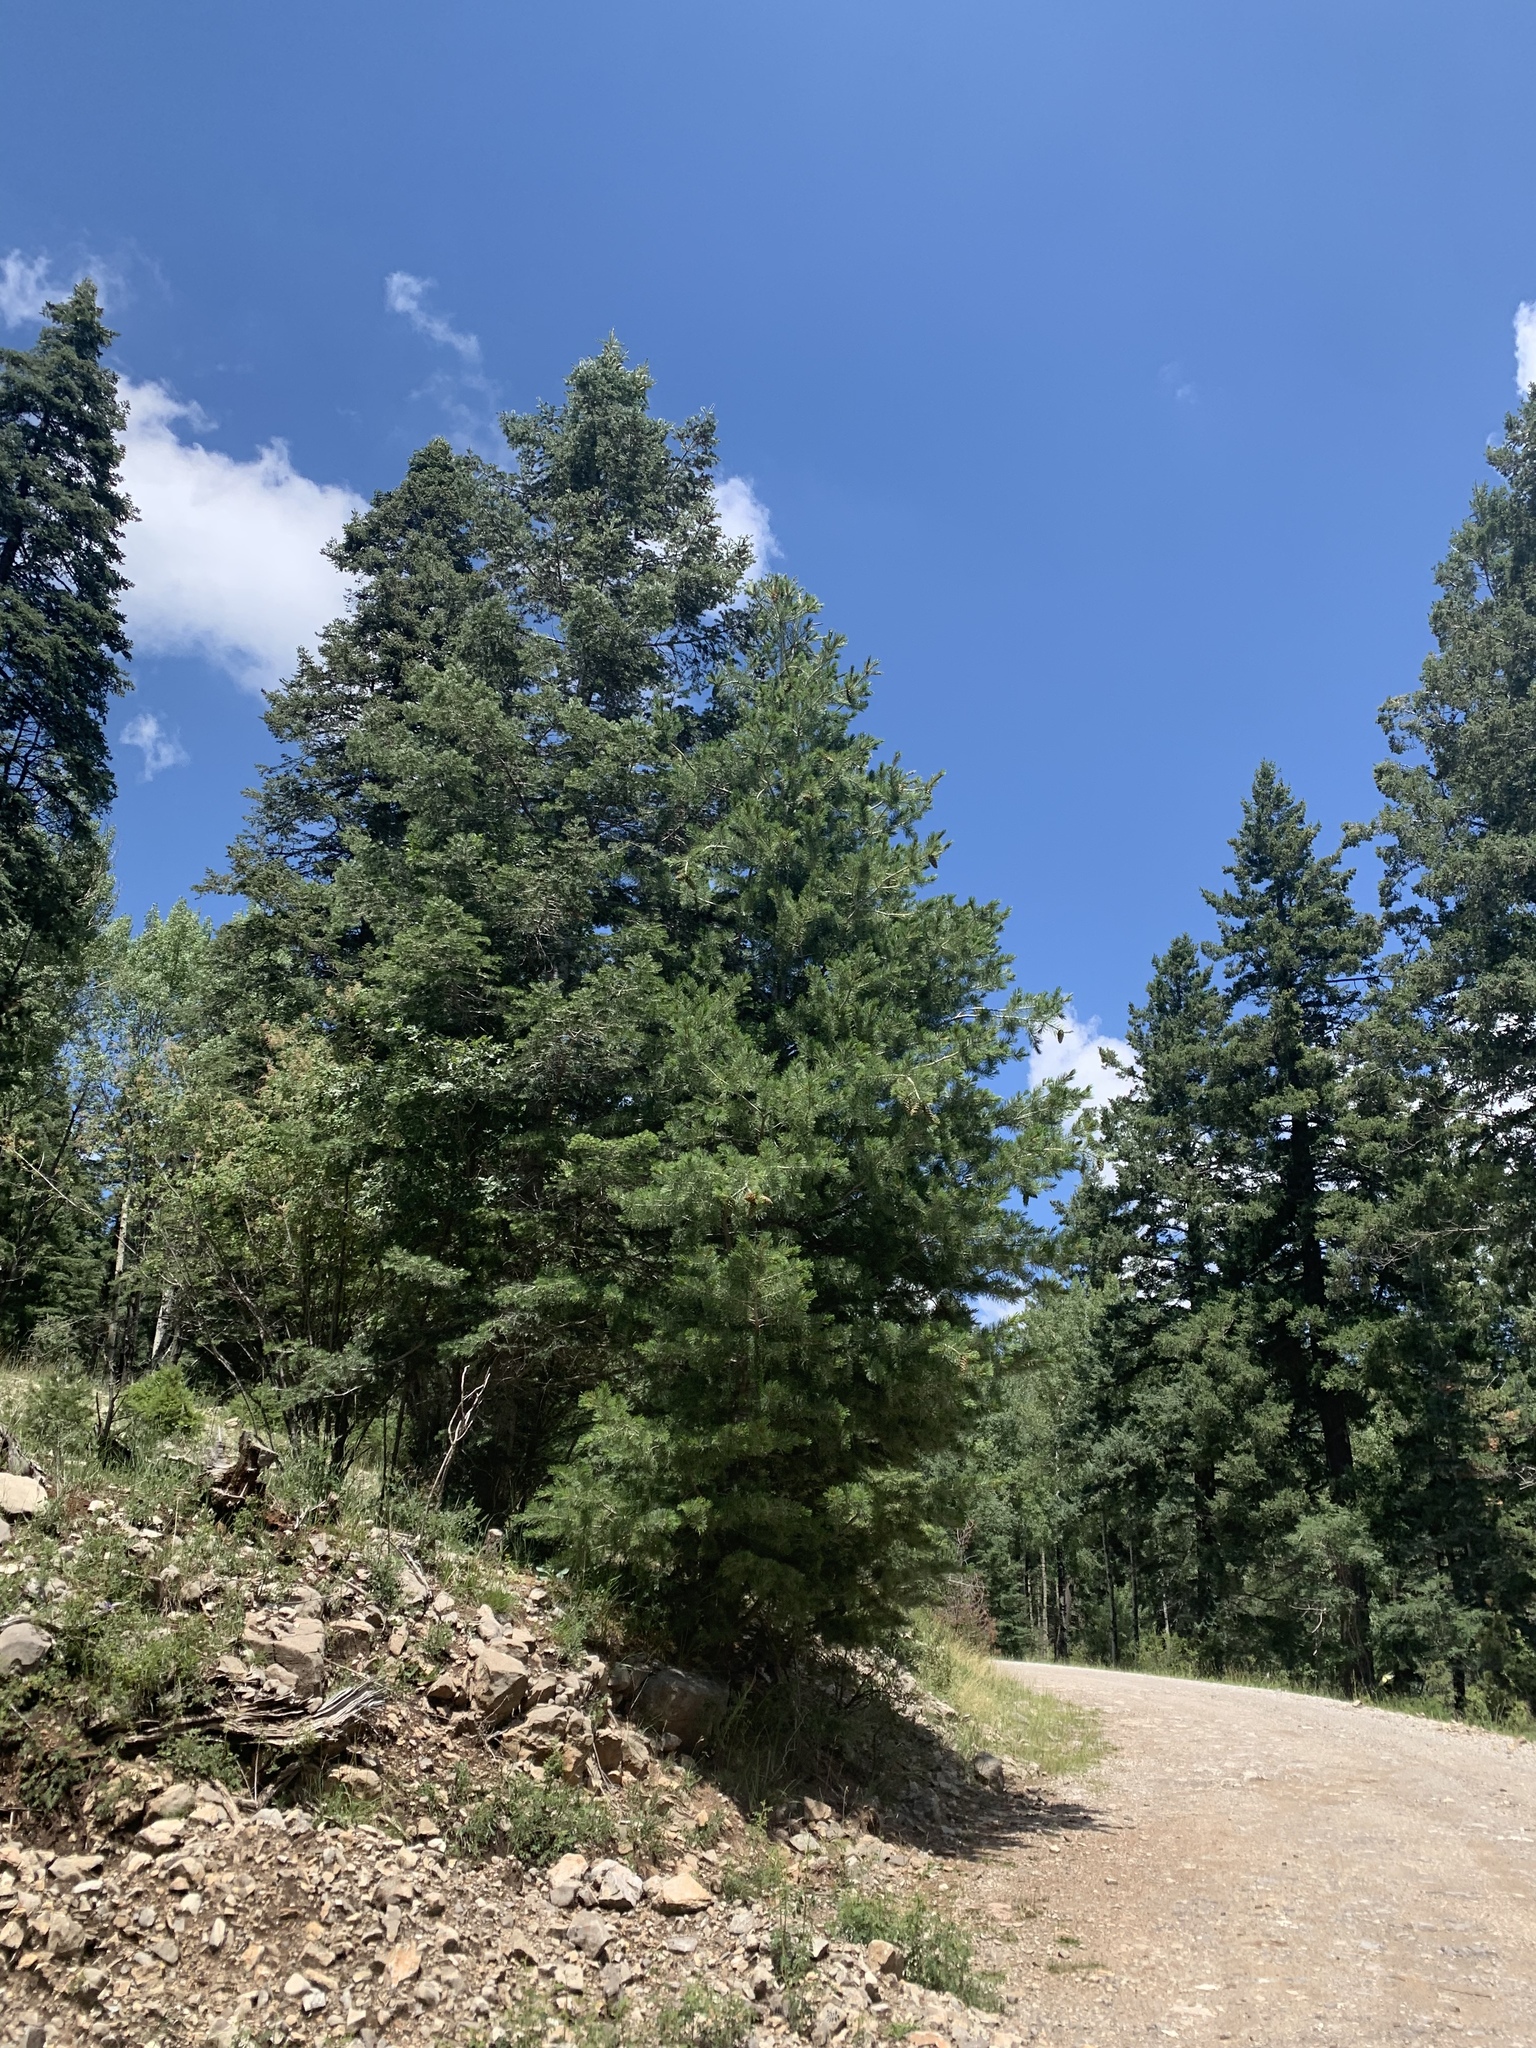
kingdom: Plantae
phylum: Tracheophyta
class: Pinopsida
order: Pinales
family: Pinaceae
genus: Pinus
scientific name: Pinus strobiformis
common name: Southwestern white pine
